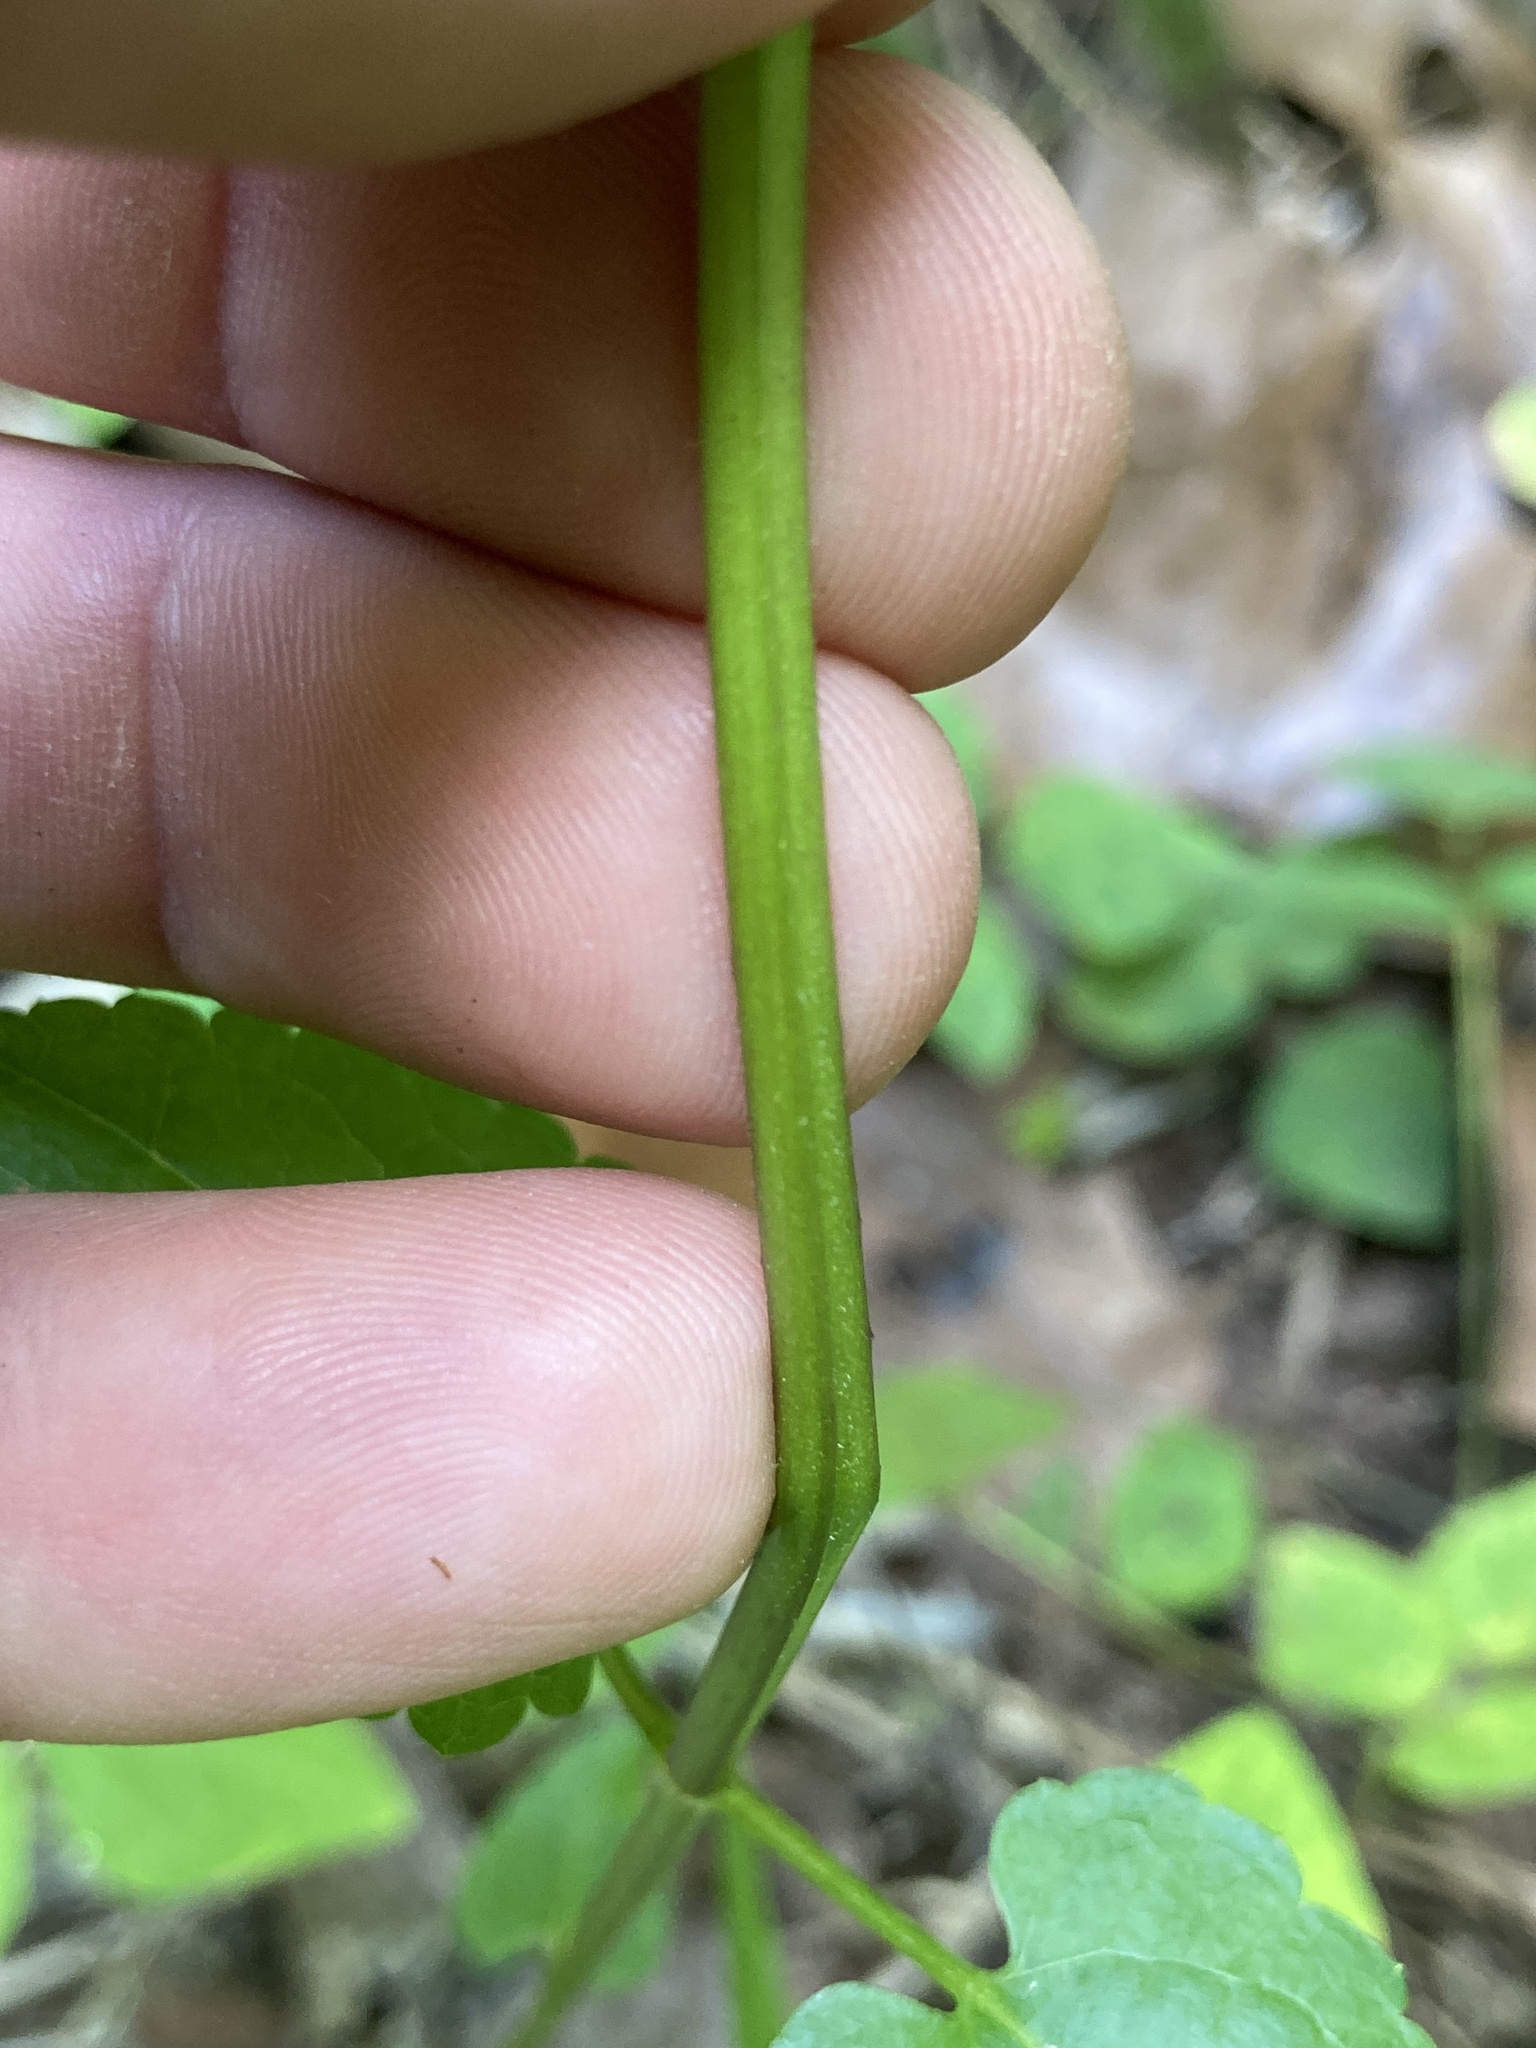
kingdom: Plantae
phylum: Tracheophyta
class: Magnoliopsida
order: Lamiales
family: Lamiaceae
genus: Stachys
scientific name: Stachys floridana
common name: Florida betony
